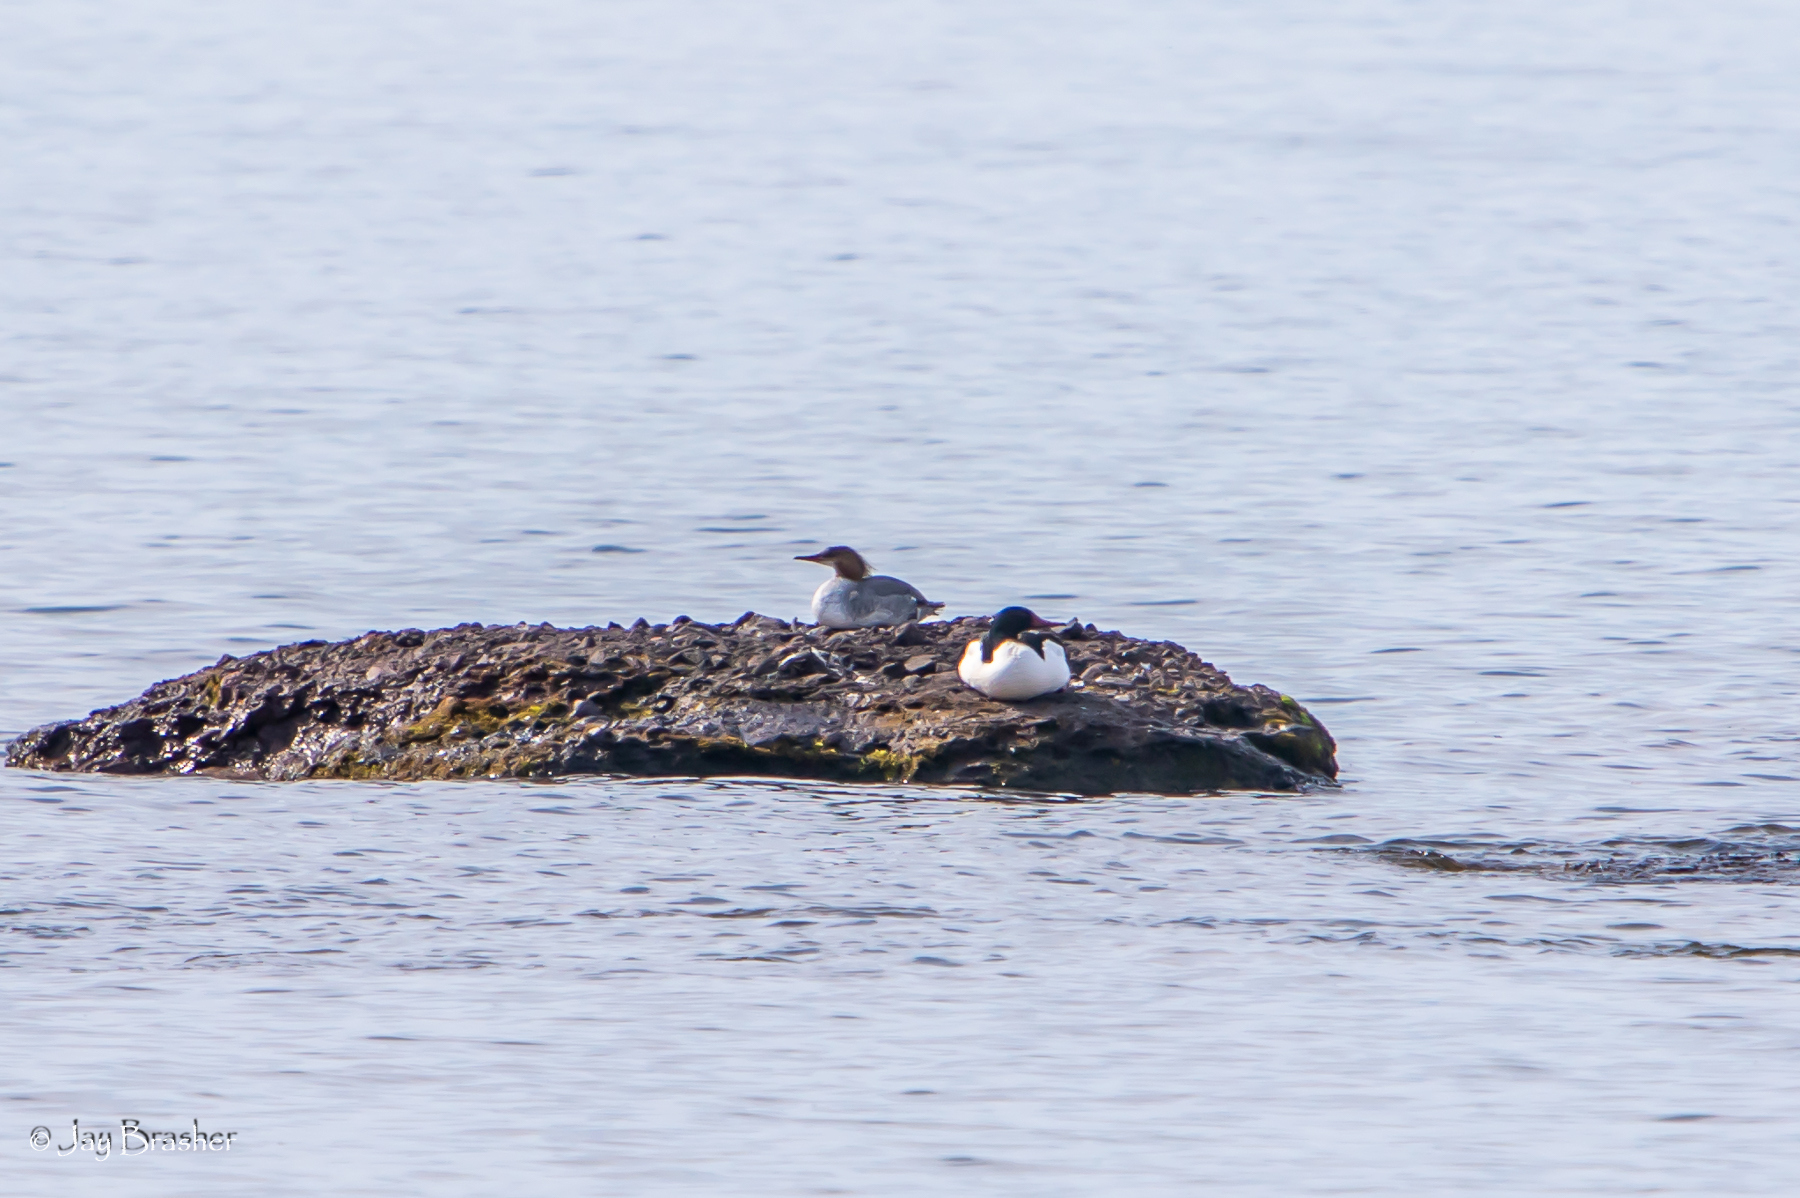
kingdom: Animalia
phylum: Chordata
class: Aves
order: Anseriformes
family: Anatidae
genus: Mergus
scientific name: Mergus merganser
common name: Common merganser
